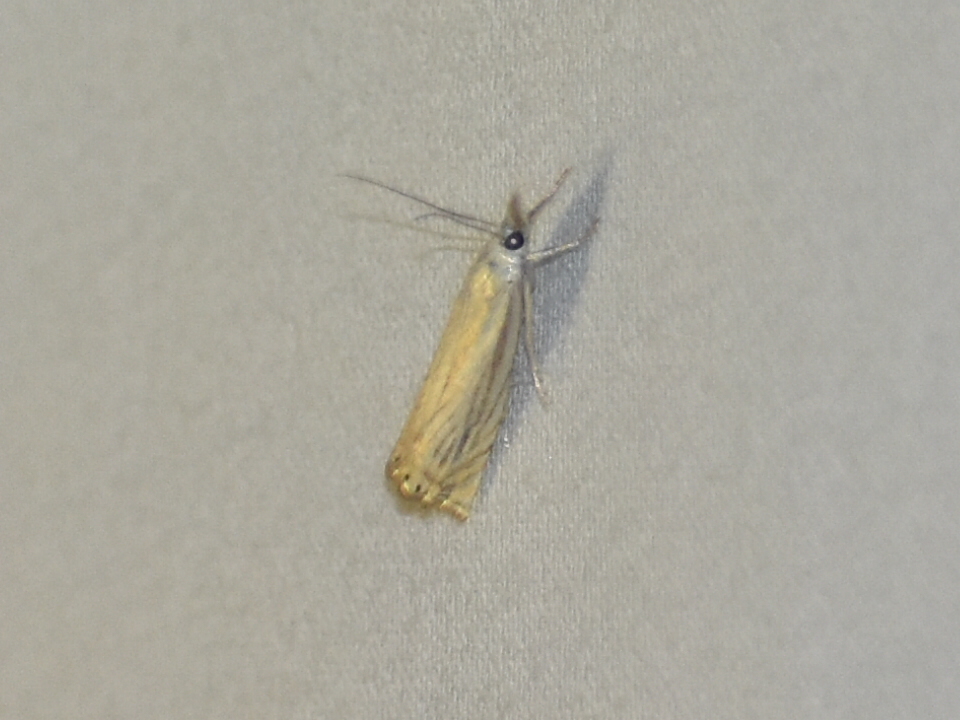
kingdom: Animalia
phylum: Arthropoda
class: Insecta
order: Lepidoptera
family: Crambidae
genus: Chrysoteuchia
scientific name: Chrysoteuchia topiarius
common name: Topiary grass-veneer
